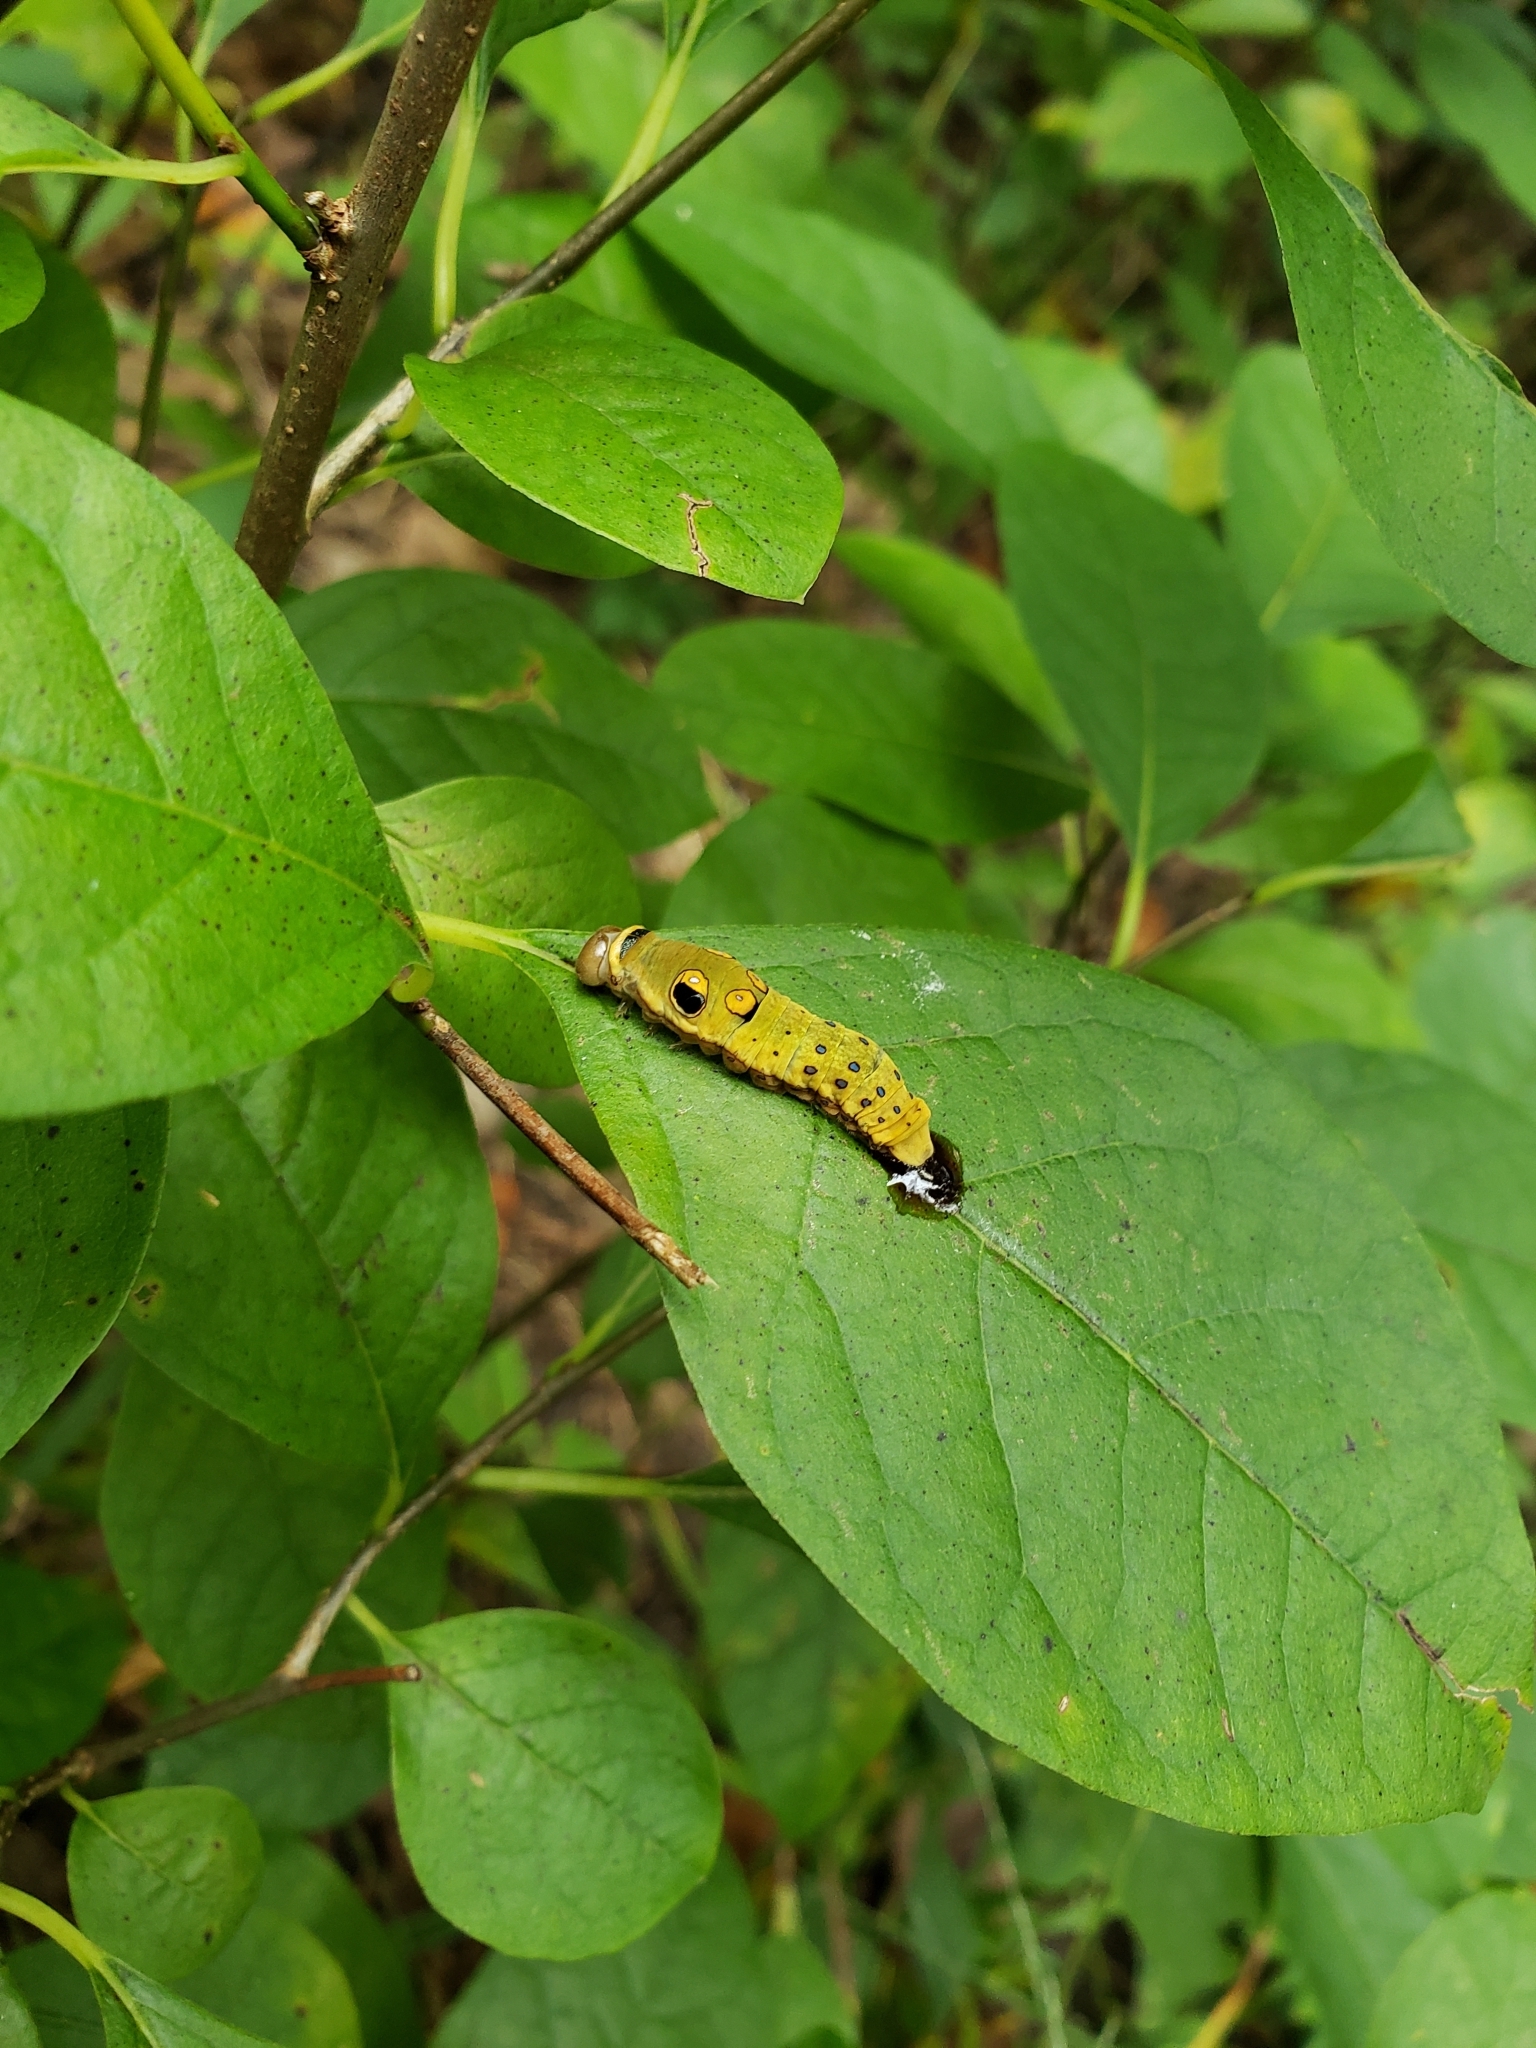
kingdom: Animalia
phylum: Arthropoda
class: Insecta
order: Lepidoptera
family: Papilionidae
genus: Papilio
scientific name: Papilio troilus
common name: Spicebush swallowtail
